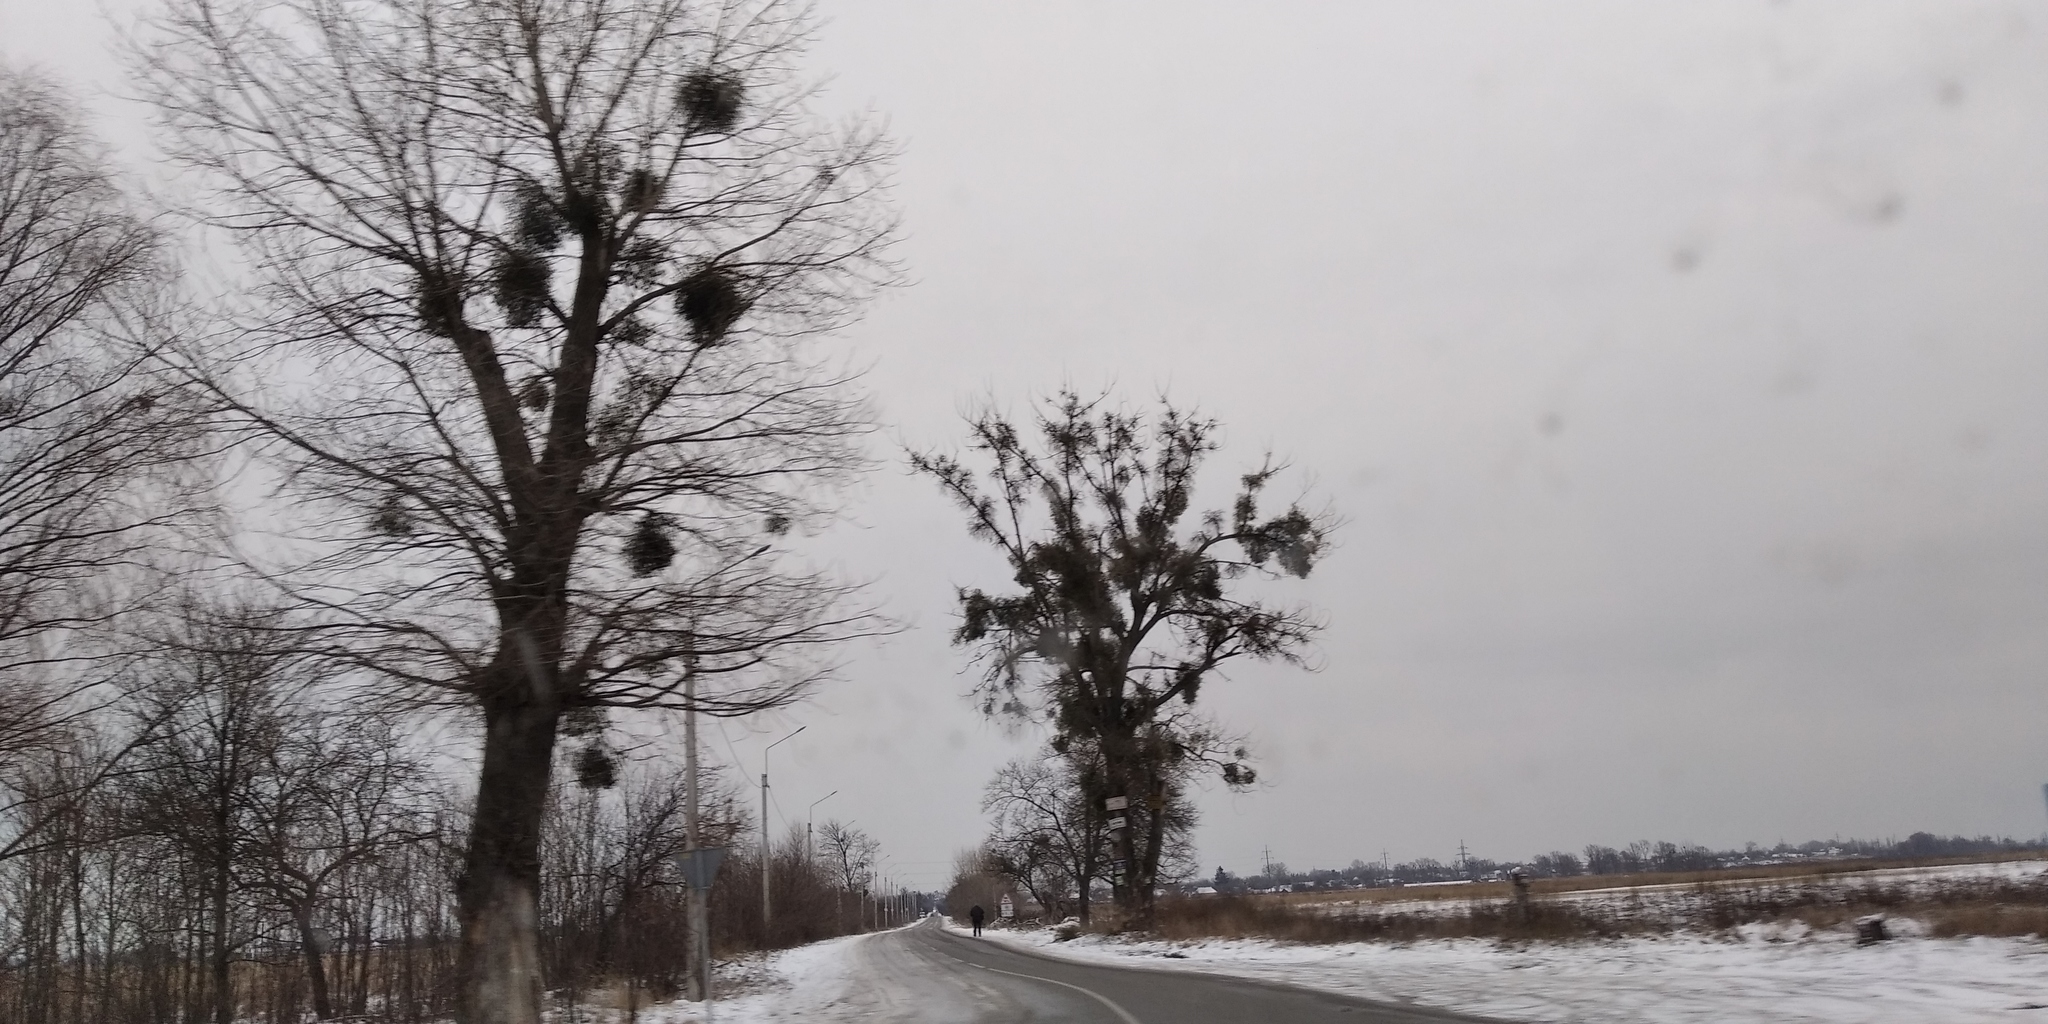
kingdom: Plantae
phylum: Tracheophyta
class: Magnoliopsida
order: Santalales
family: Viscaceae
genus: Viscum
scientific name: Viscum album
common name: Mistletoe
